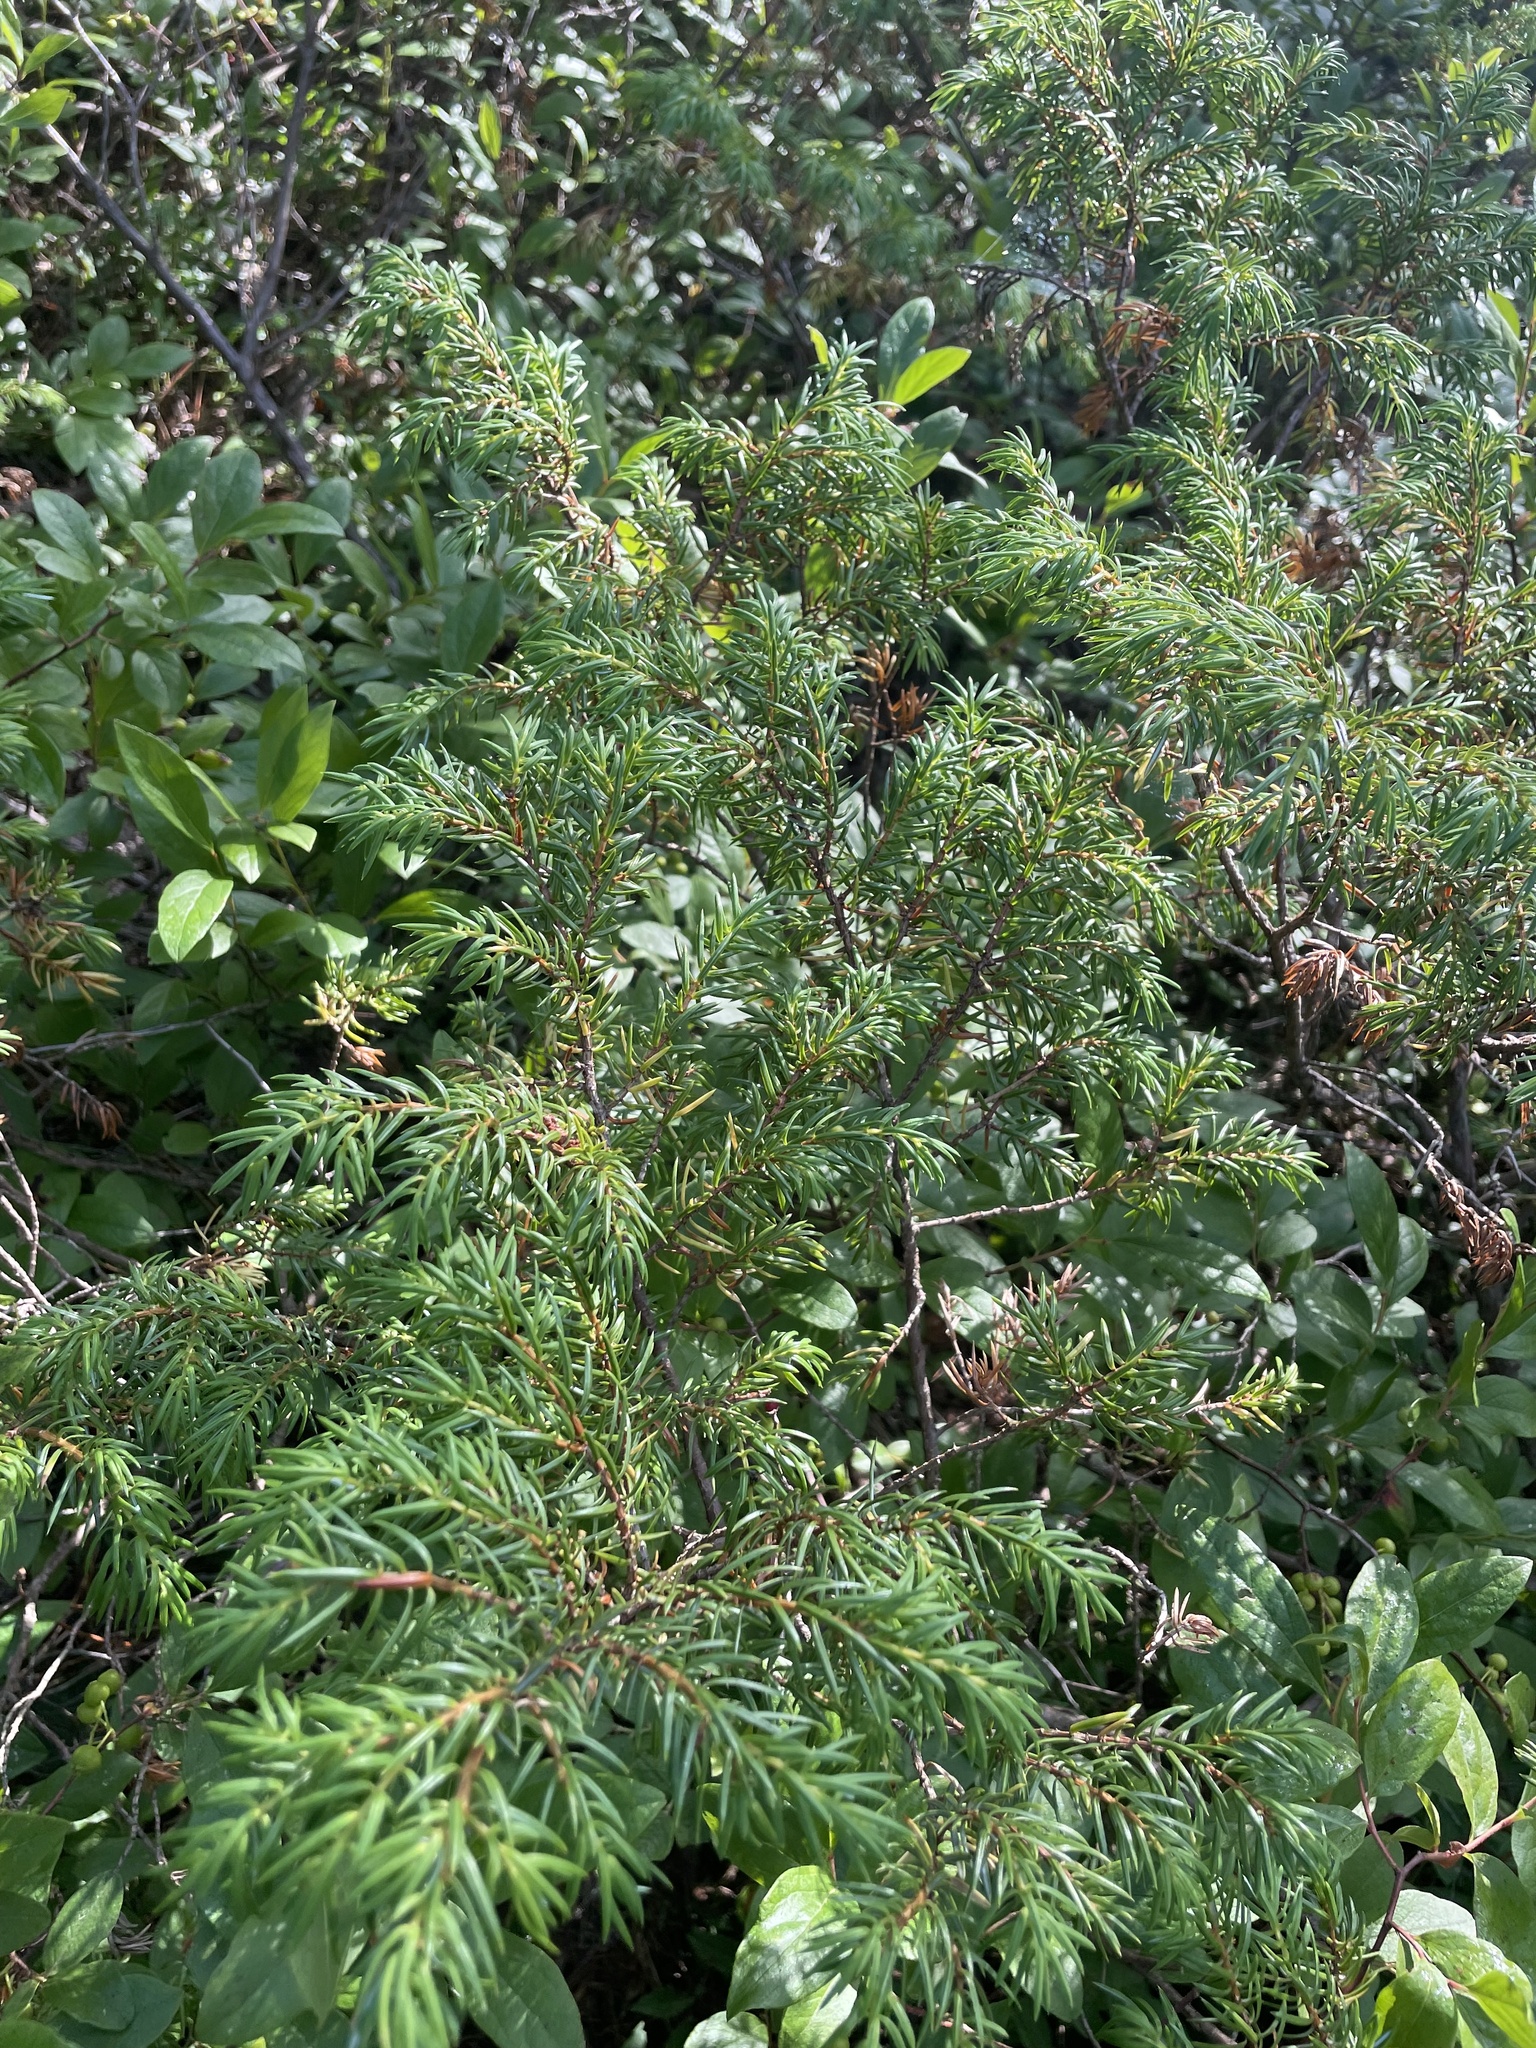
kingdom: Plantae
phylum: Tracheophyta
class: Pinopsida
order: Pinales
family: Cupressaceae
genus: Juniperus
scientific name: Juniperus communis
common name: Common juniper
